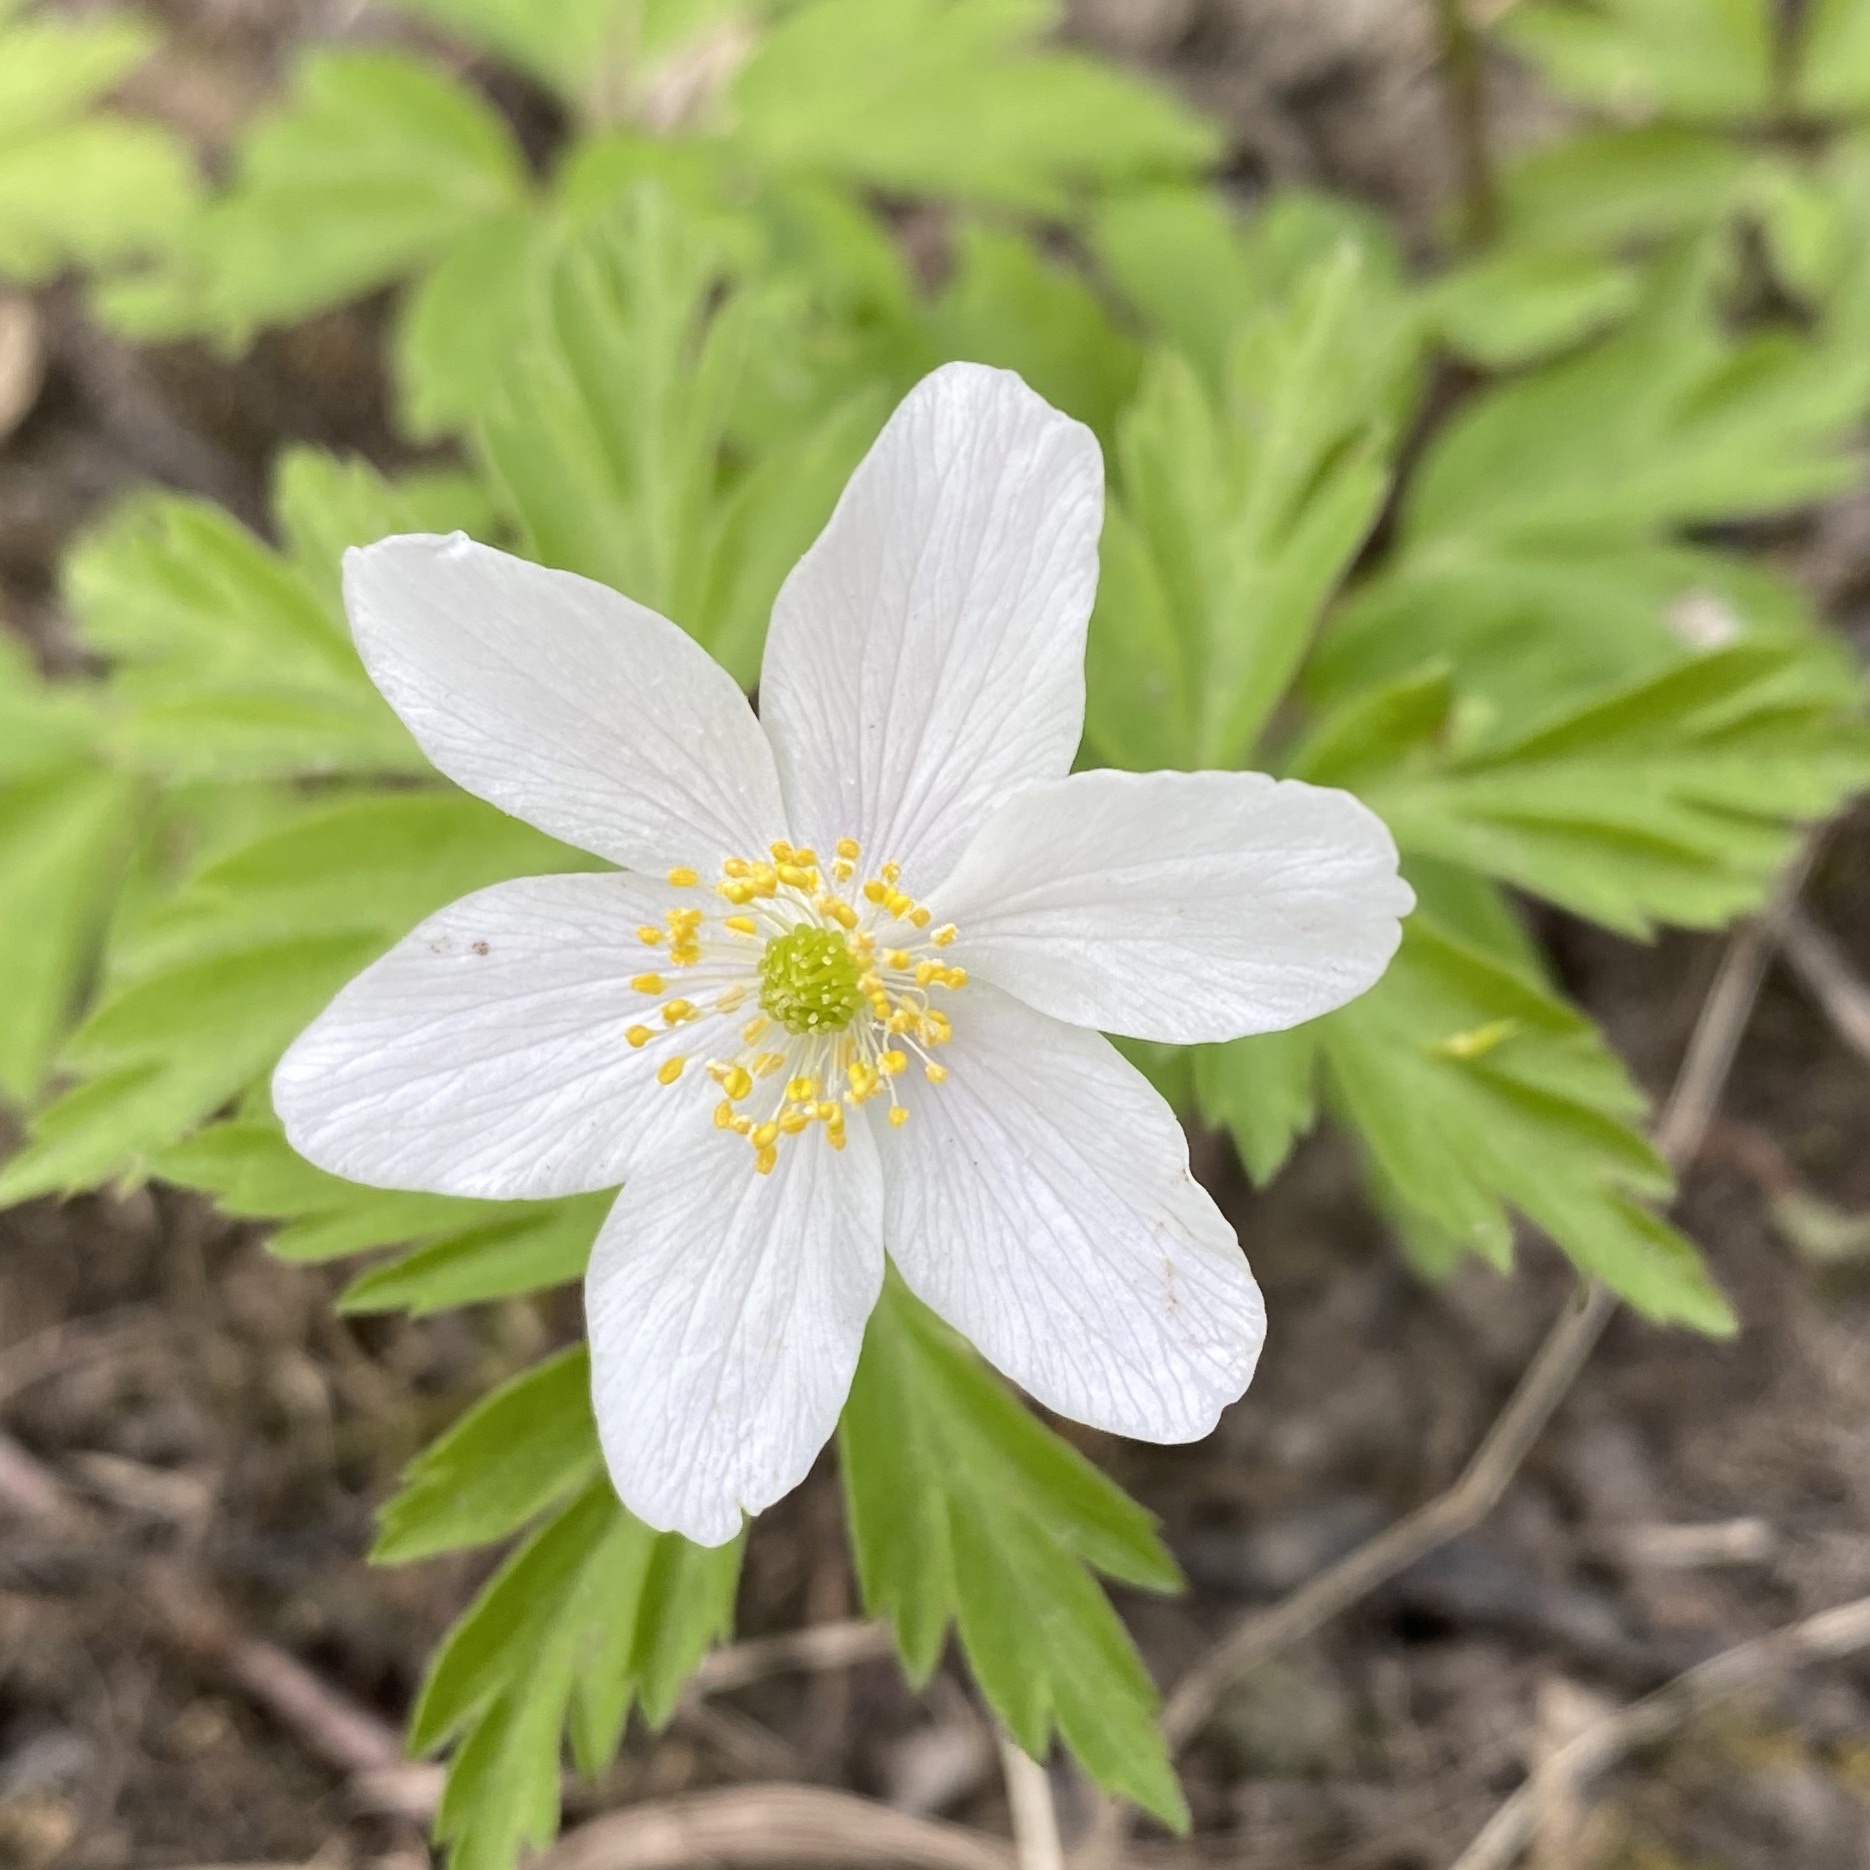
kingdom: Plantae
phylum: Tracheophyta
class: Magnoliopsida
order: Ranunculales
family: Ranunculaceae
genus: Anemone
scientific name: Anemone nemorosa
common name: Wood anemone
